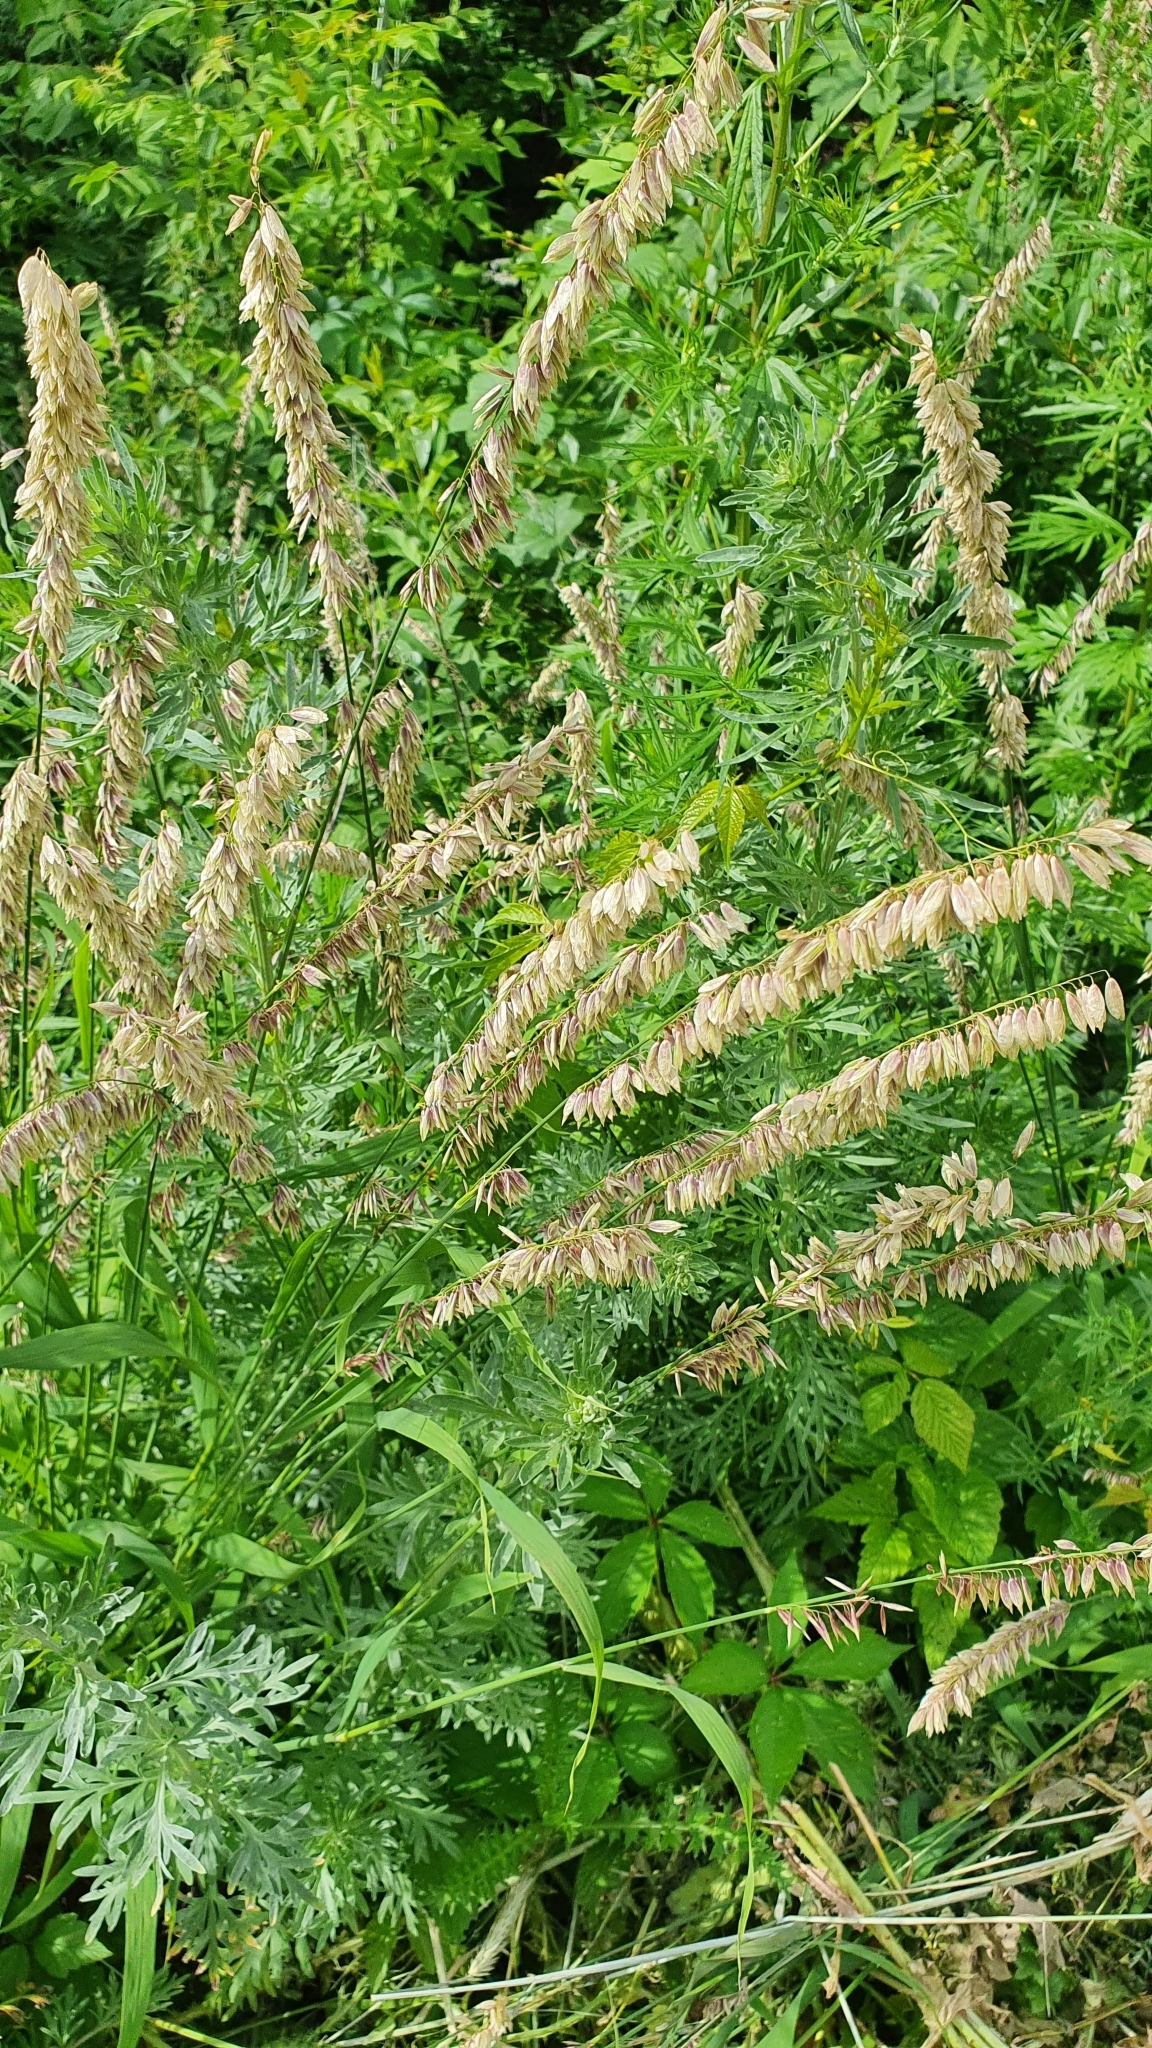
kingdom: Plantae
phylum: Tracheophyta
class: Liliopsida
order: Poales
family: Poaceae
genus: Melica
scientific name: Melica altissima
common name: Siberian melicgrass
